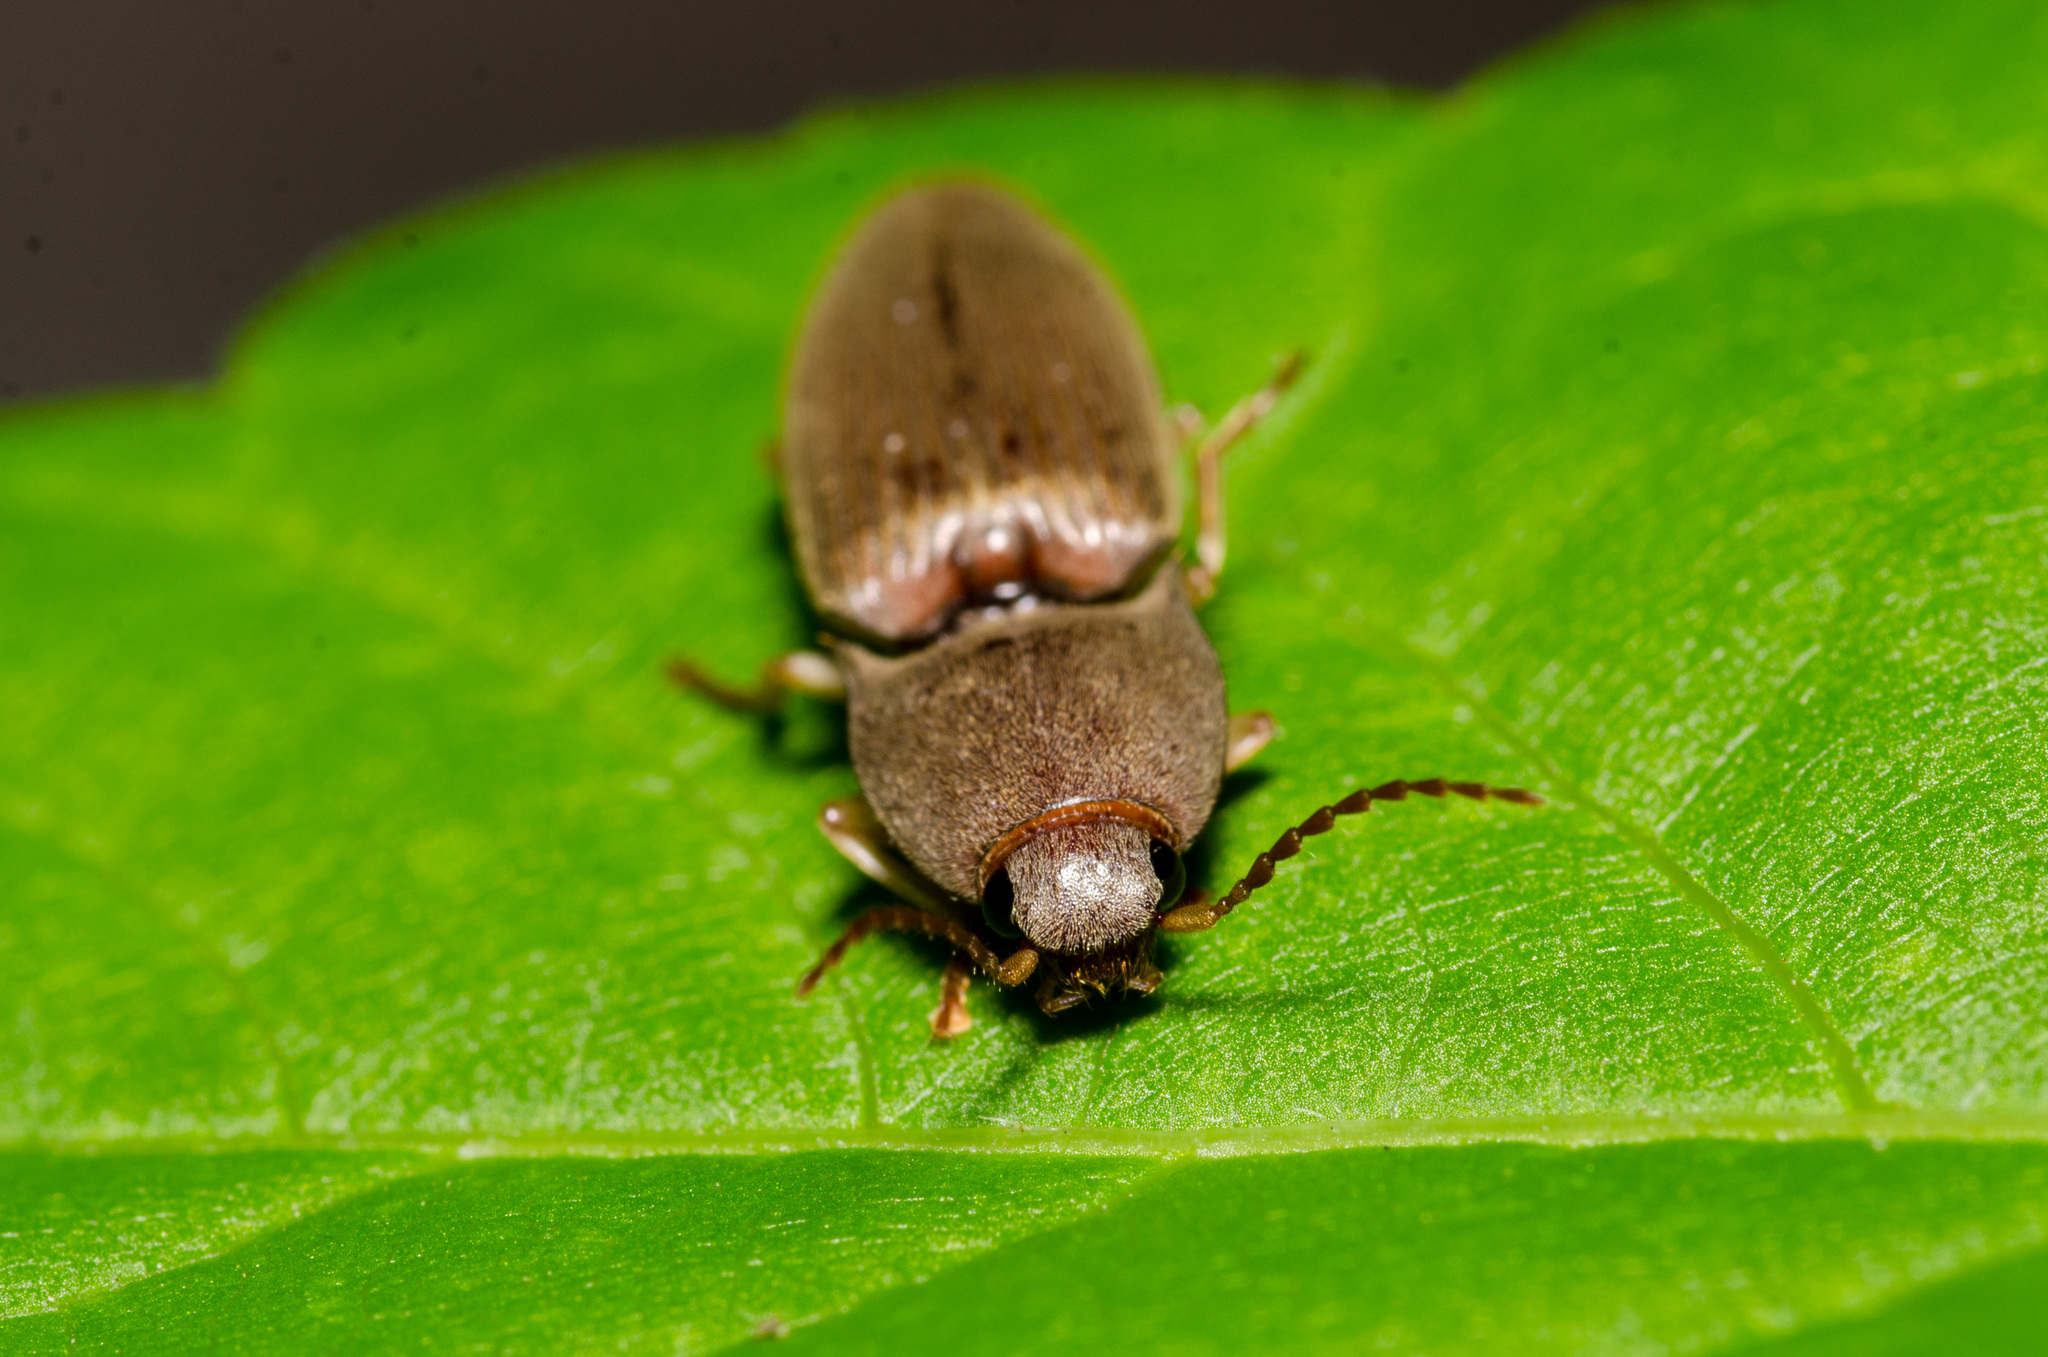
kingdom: Animalia
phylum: Arthropoda
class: Insecta
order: Coleoptera
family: Elateridae
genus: Monocrepidius
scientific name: Monocrepidius lividus
